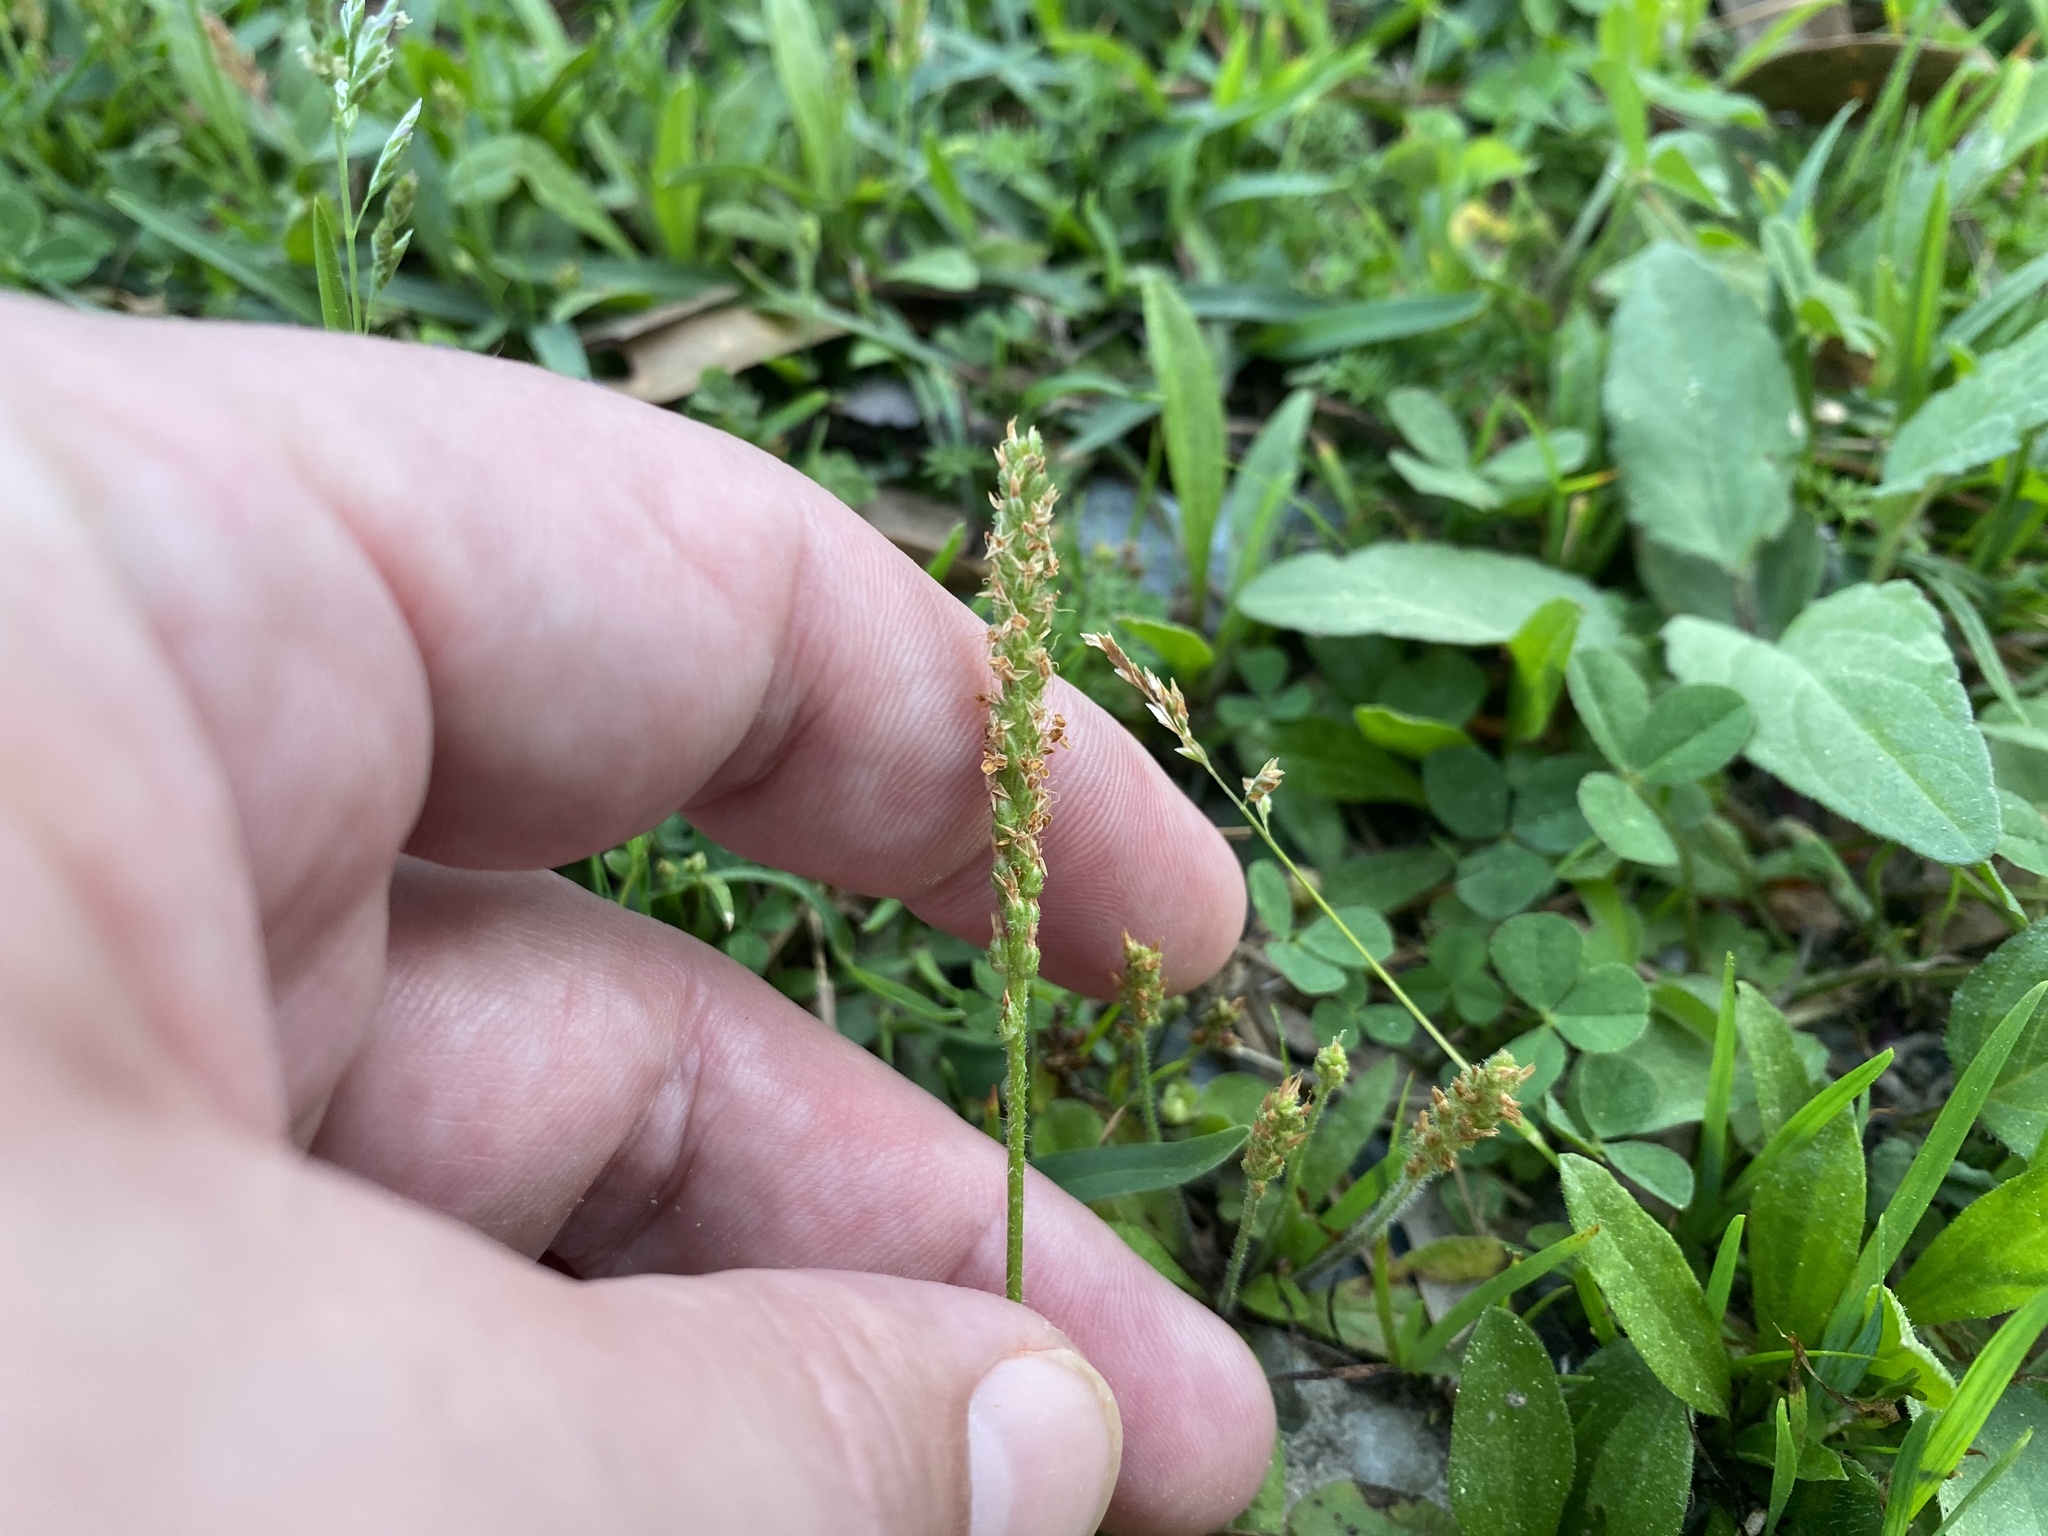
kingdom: Plantae
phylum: Tracheophyta
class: Magnoliopsida
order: Lamiales
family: Plantaginaceae
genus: Plantago
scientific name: Plantago virginica
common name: Hoary plantain
